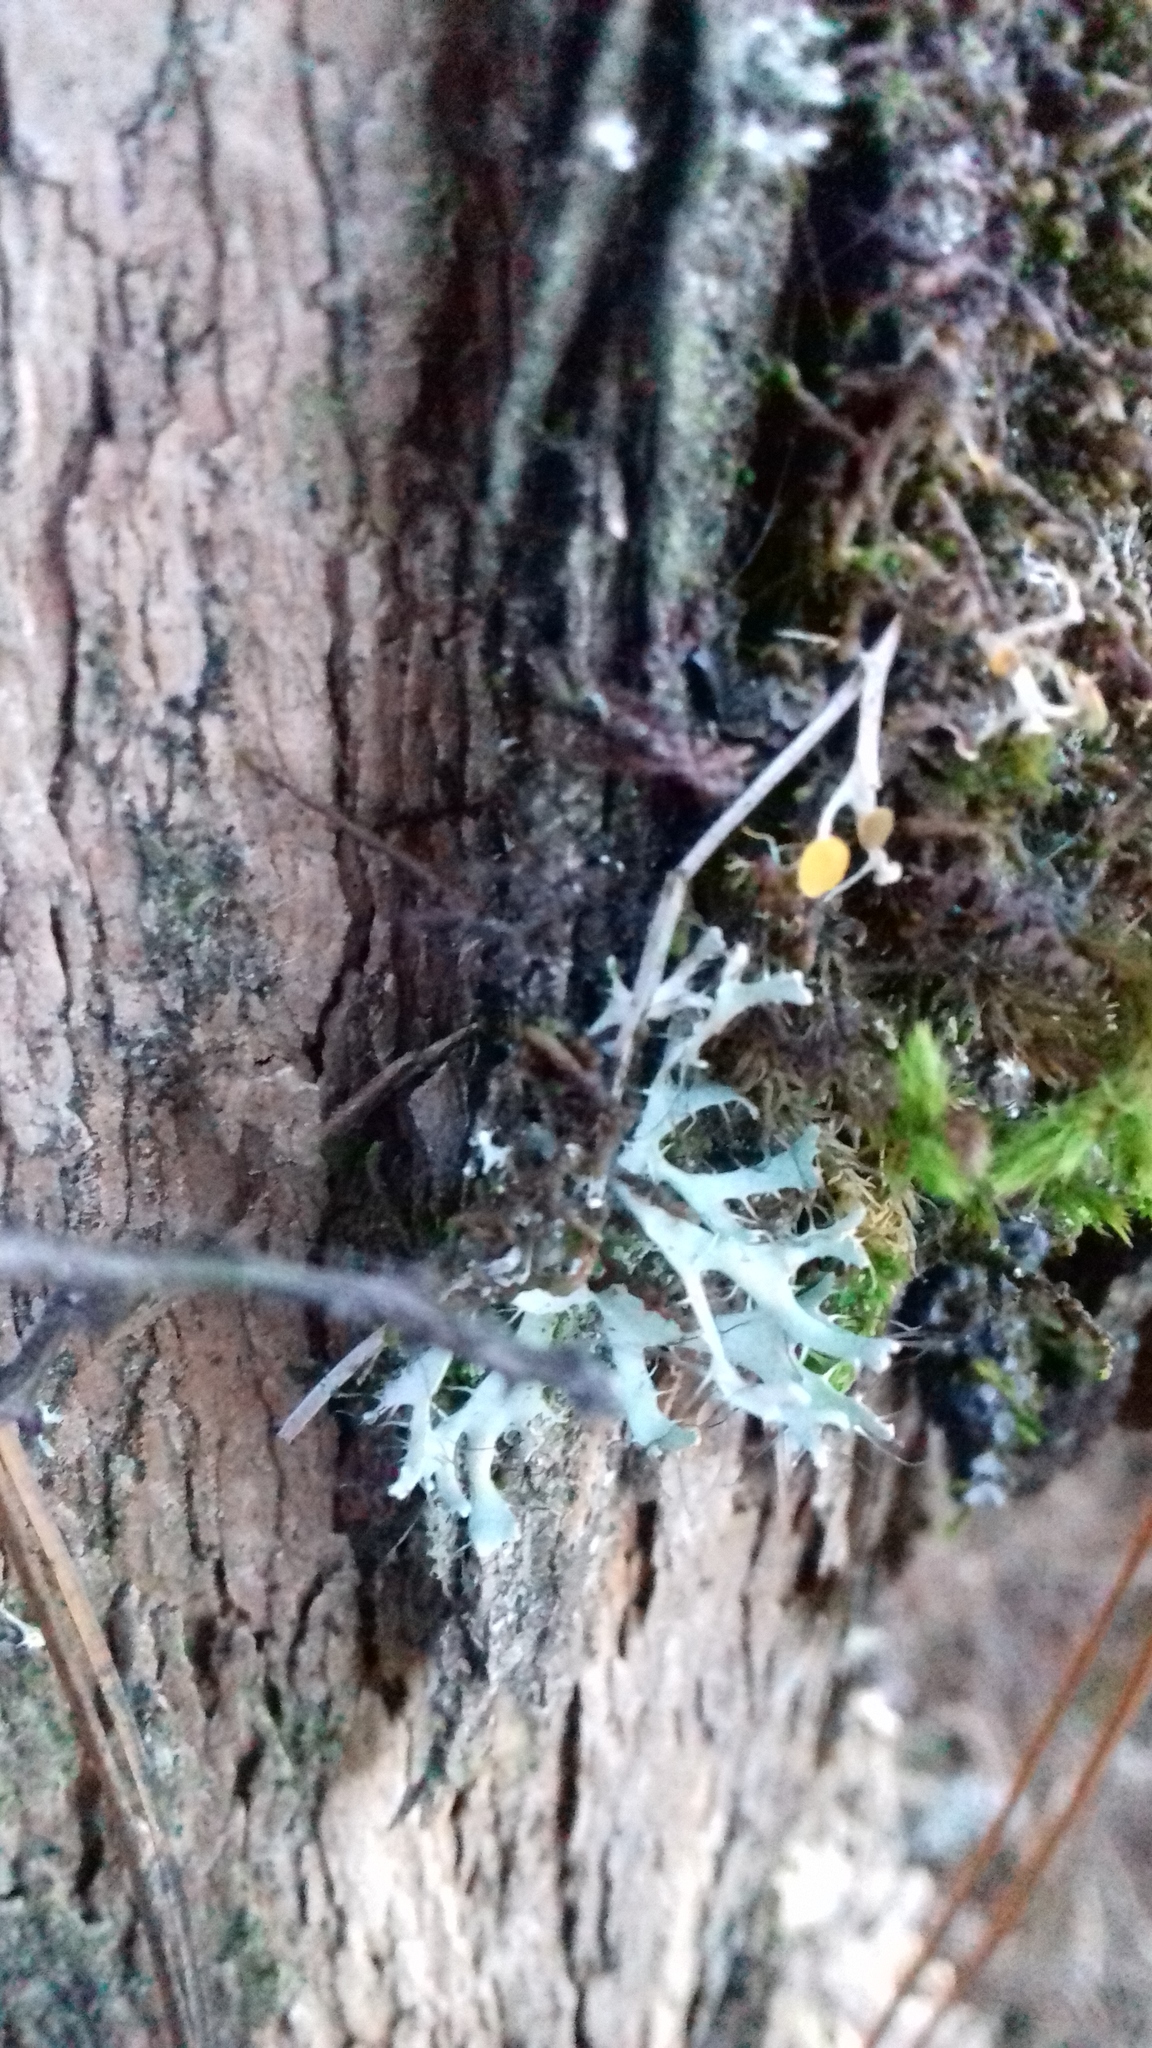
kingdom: Fungi
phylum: Ascomycota
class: Lecanoromycetes
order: Caliciales
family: Physciaceae
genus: Leucodermia
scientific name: Leucodermia leucomelos
